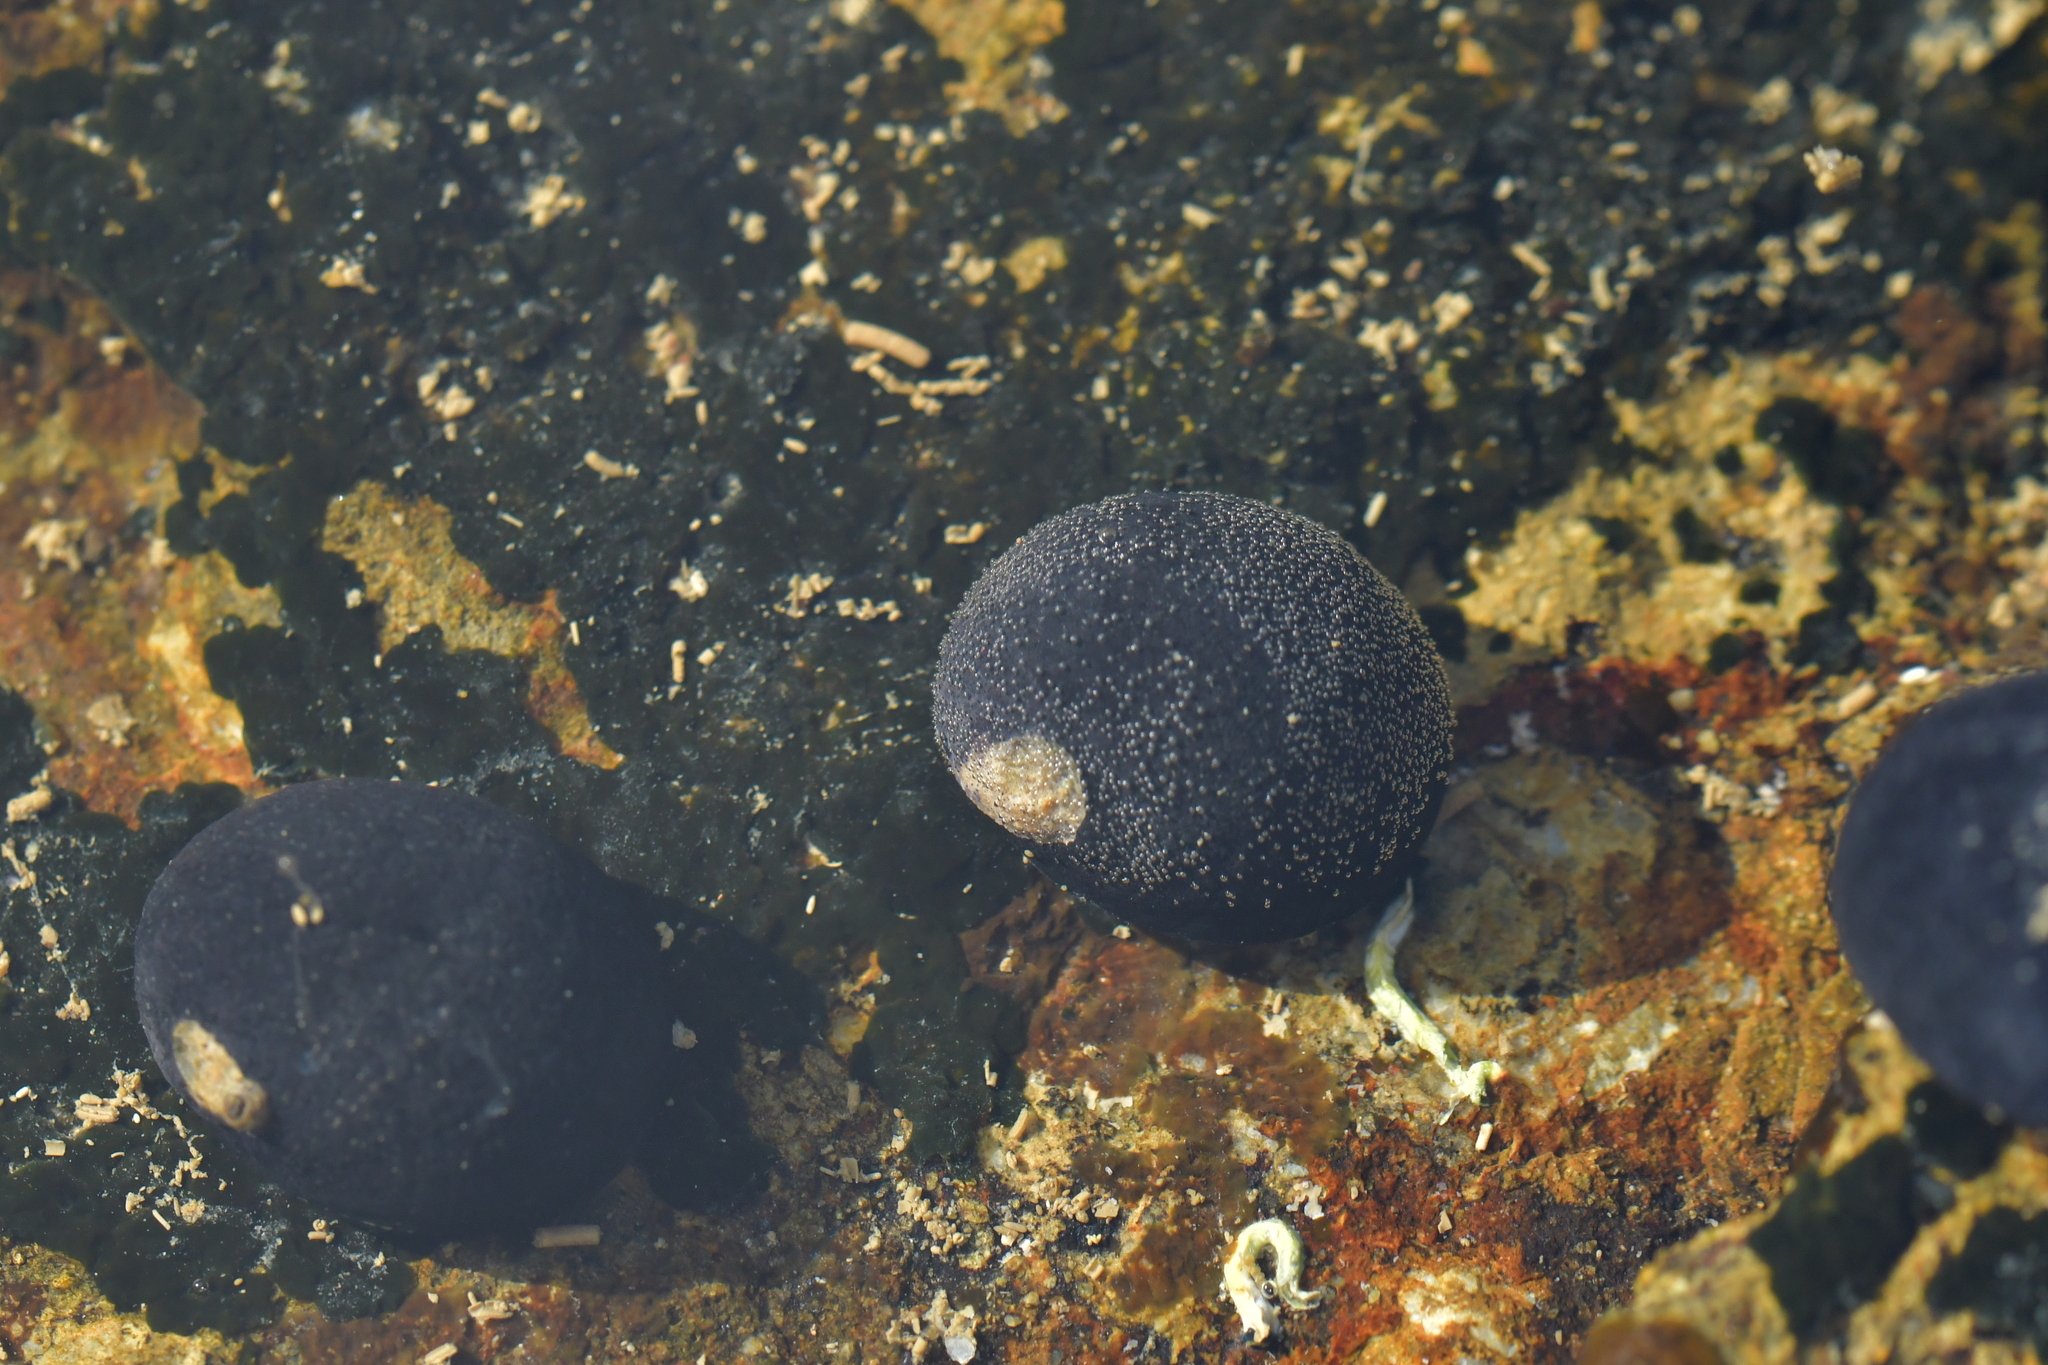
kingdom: Animalia
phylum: Mollusca
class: Gastropoda
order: Cycloneritida
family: Neritidae
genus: Nerita
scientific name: Nerita melanotragus
